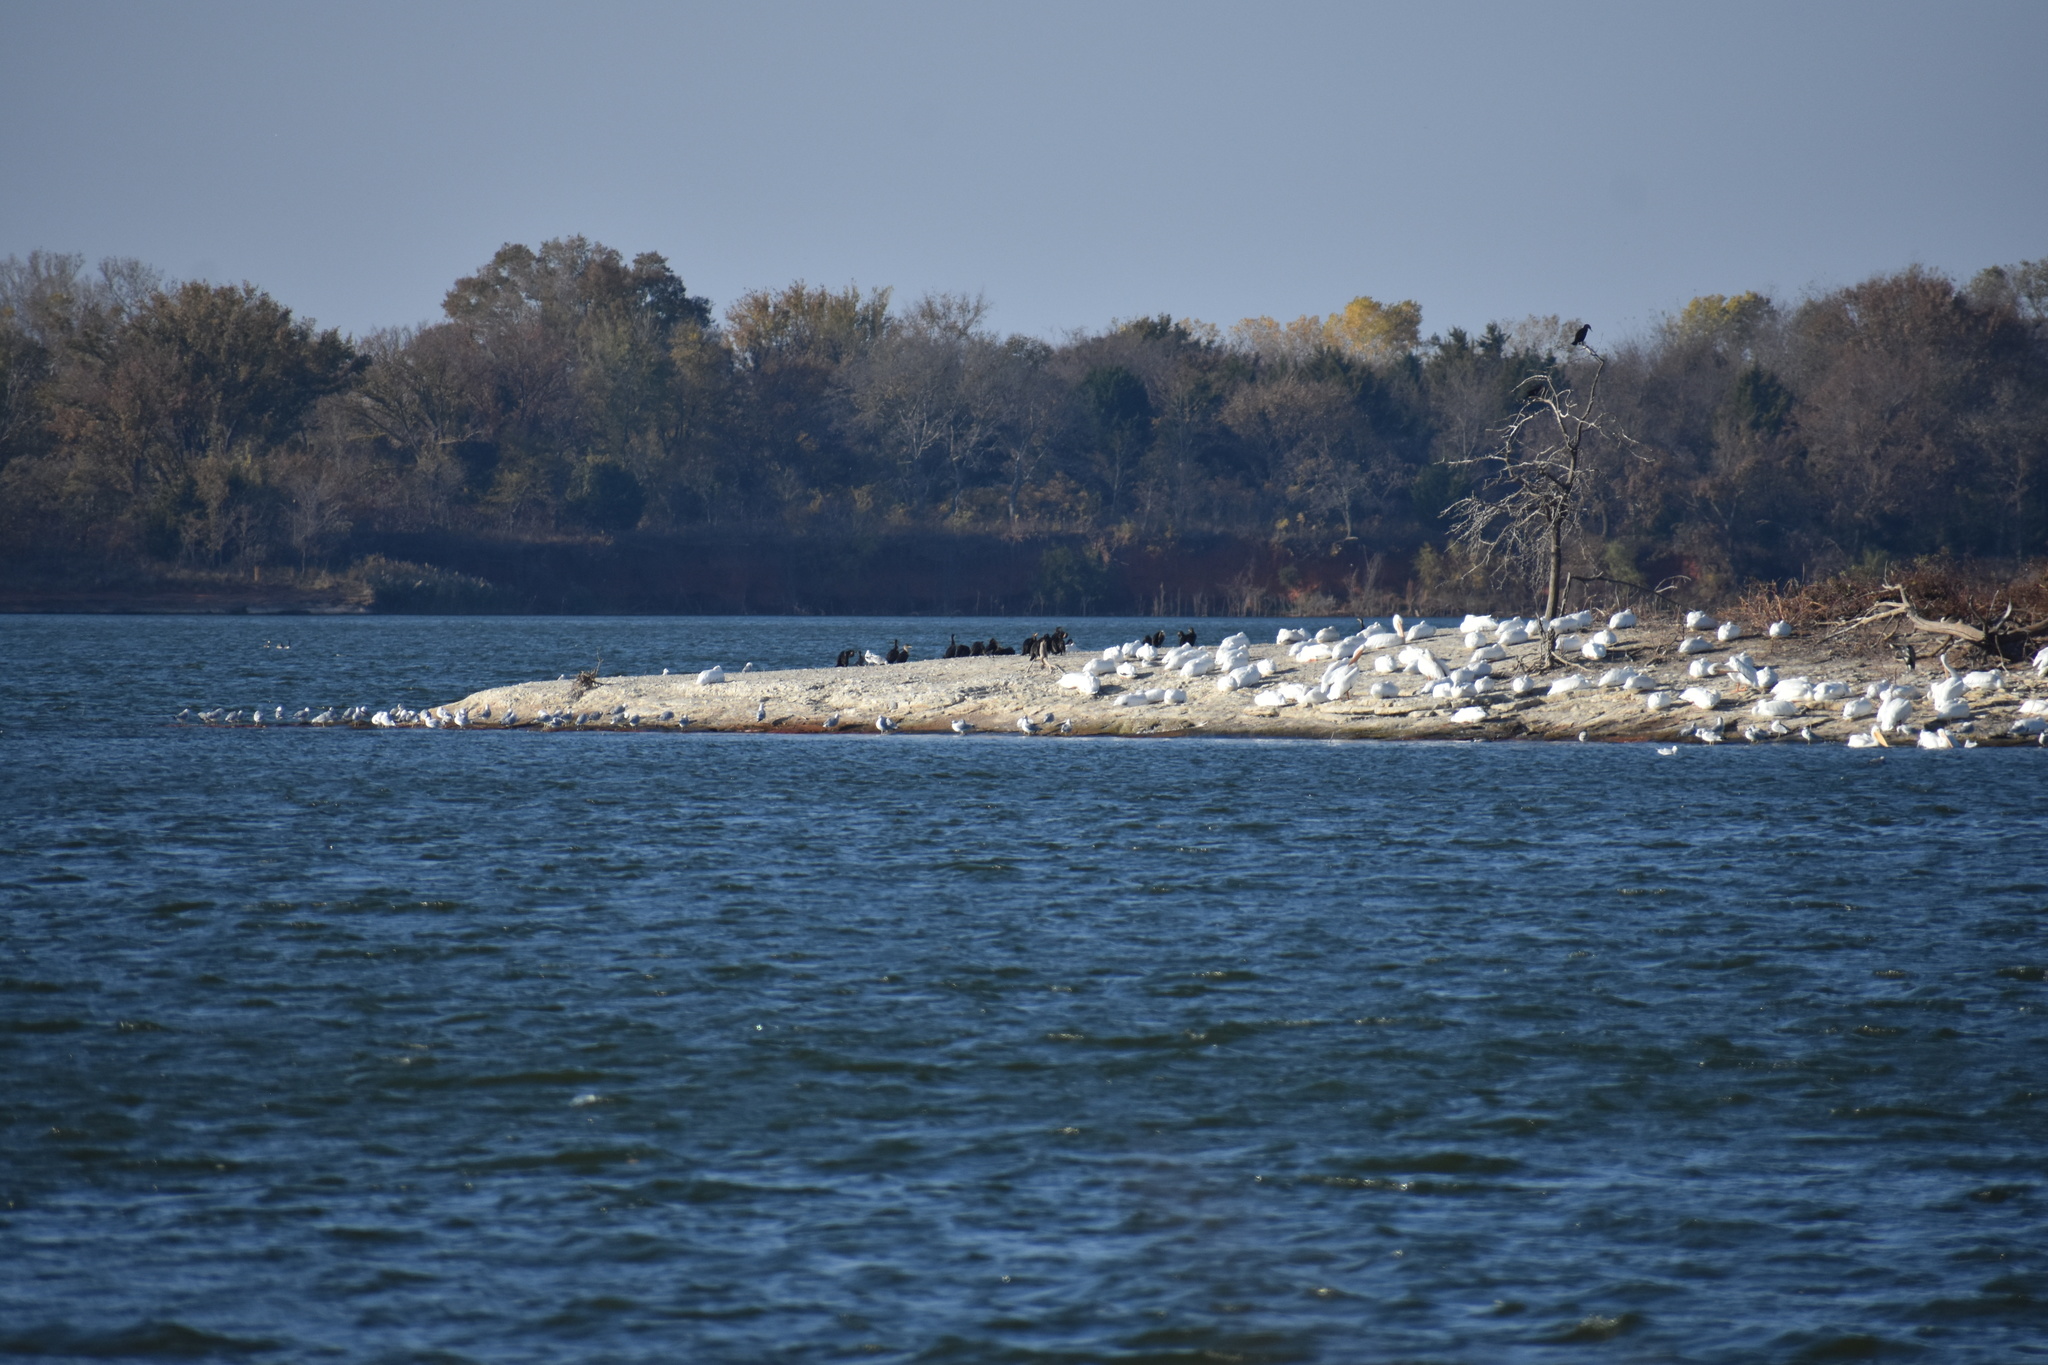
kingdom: Animalia
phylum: Chordata
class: Aves
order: Pelecaniformes
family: Pelecanidae
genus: Pelecanus
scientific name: Pelecanus erythrorhynchos
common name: American white pelican
